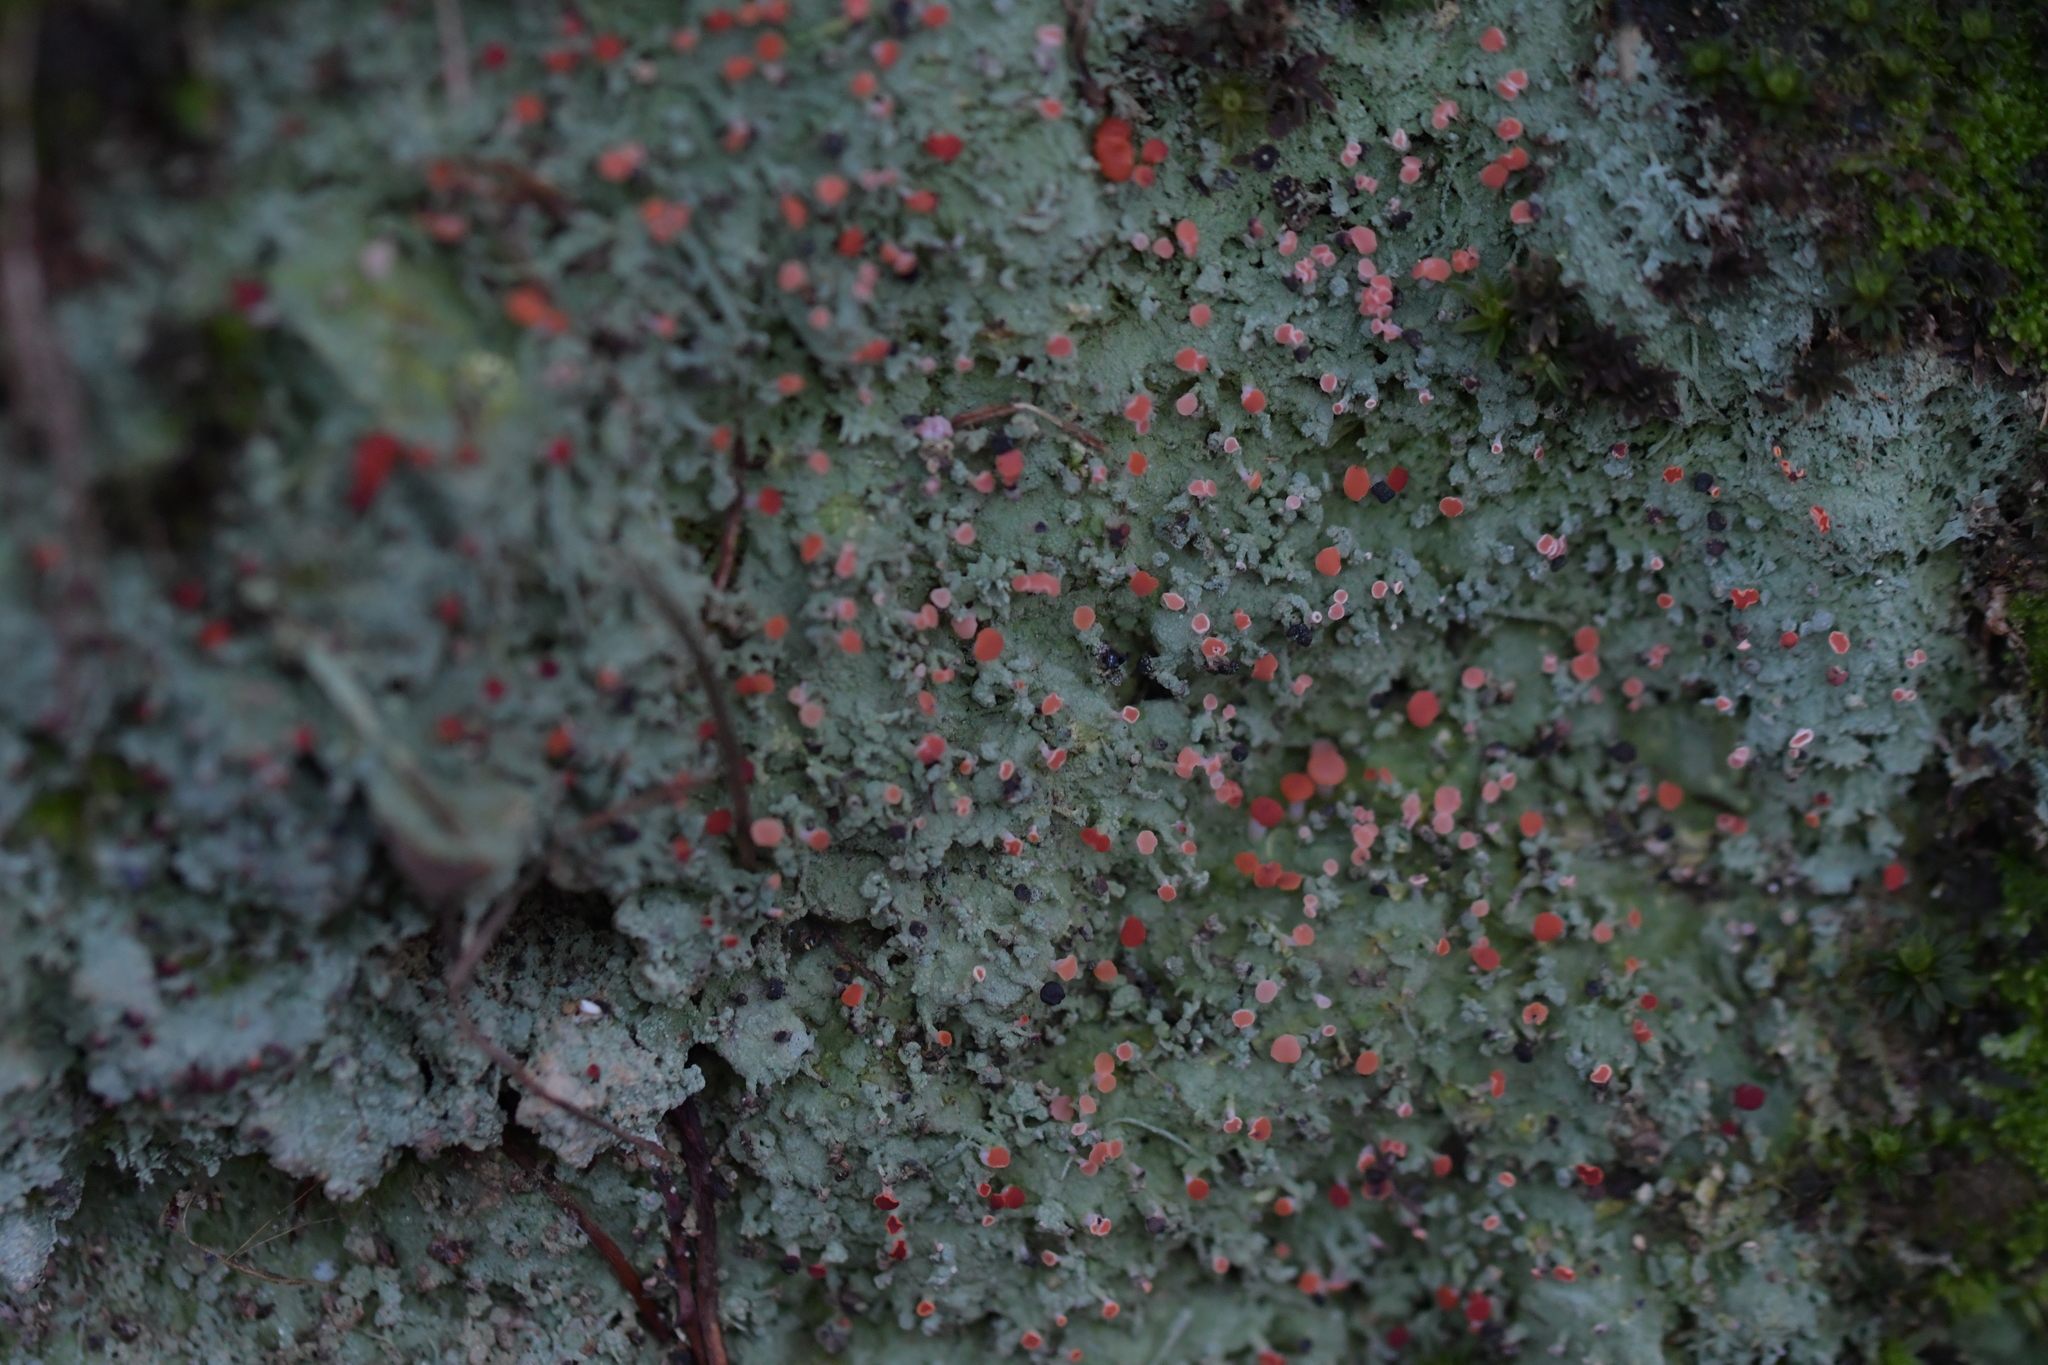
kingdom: Fungi
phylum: Ascomycota
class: Lecanoromycetes
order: Baeomycetales
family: Baeomycetaceae
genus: Baeomyces
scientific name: Baeomyces heteromorphus
